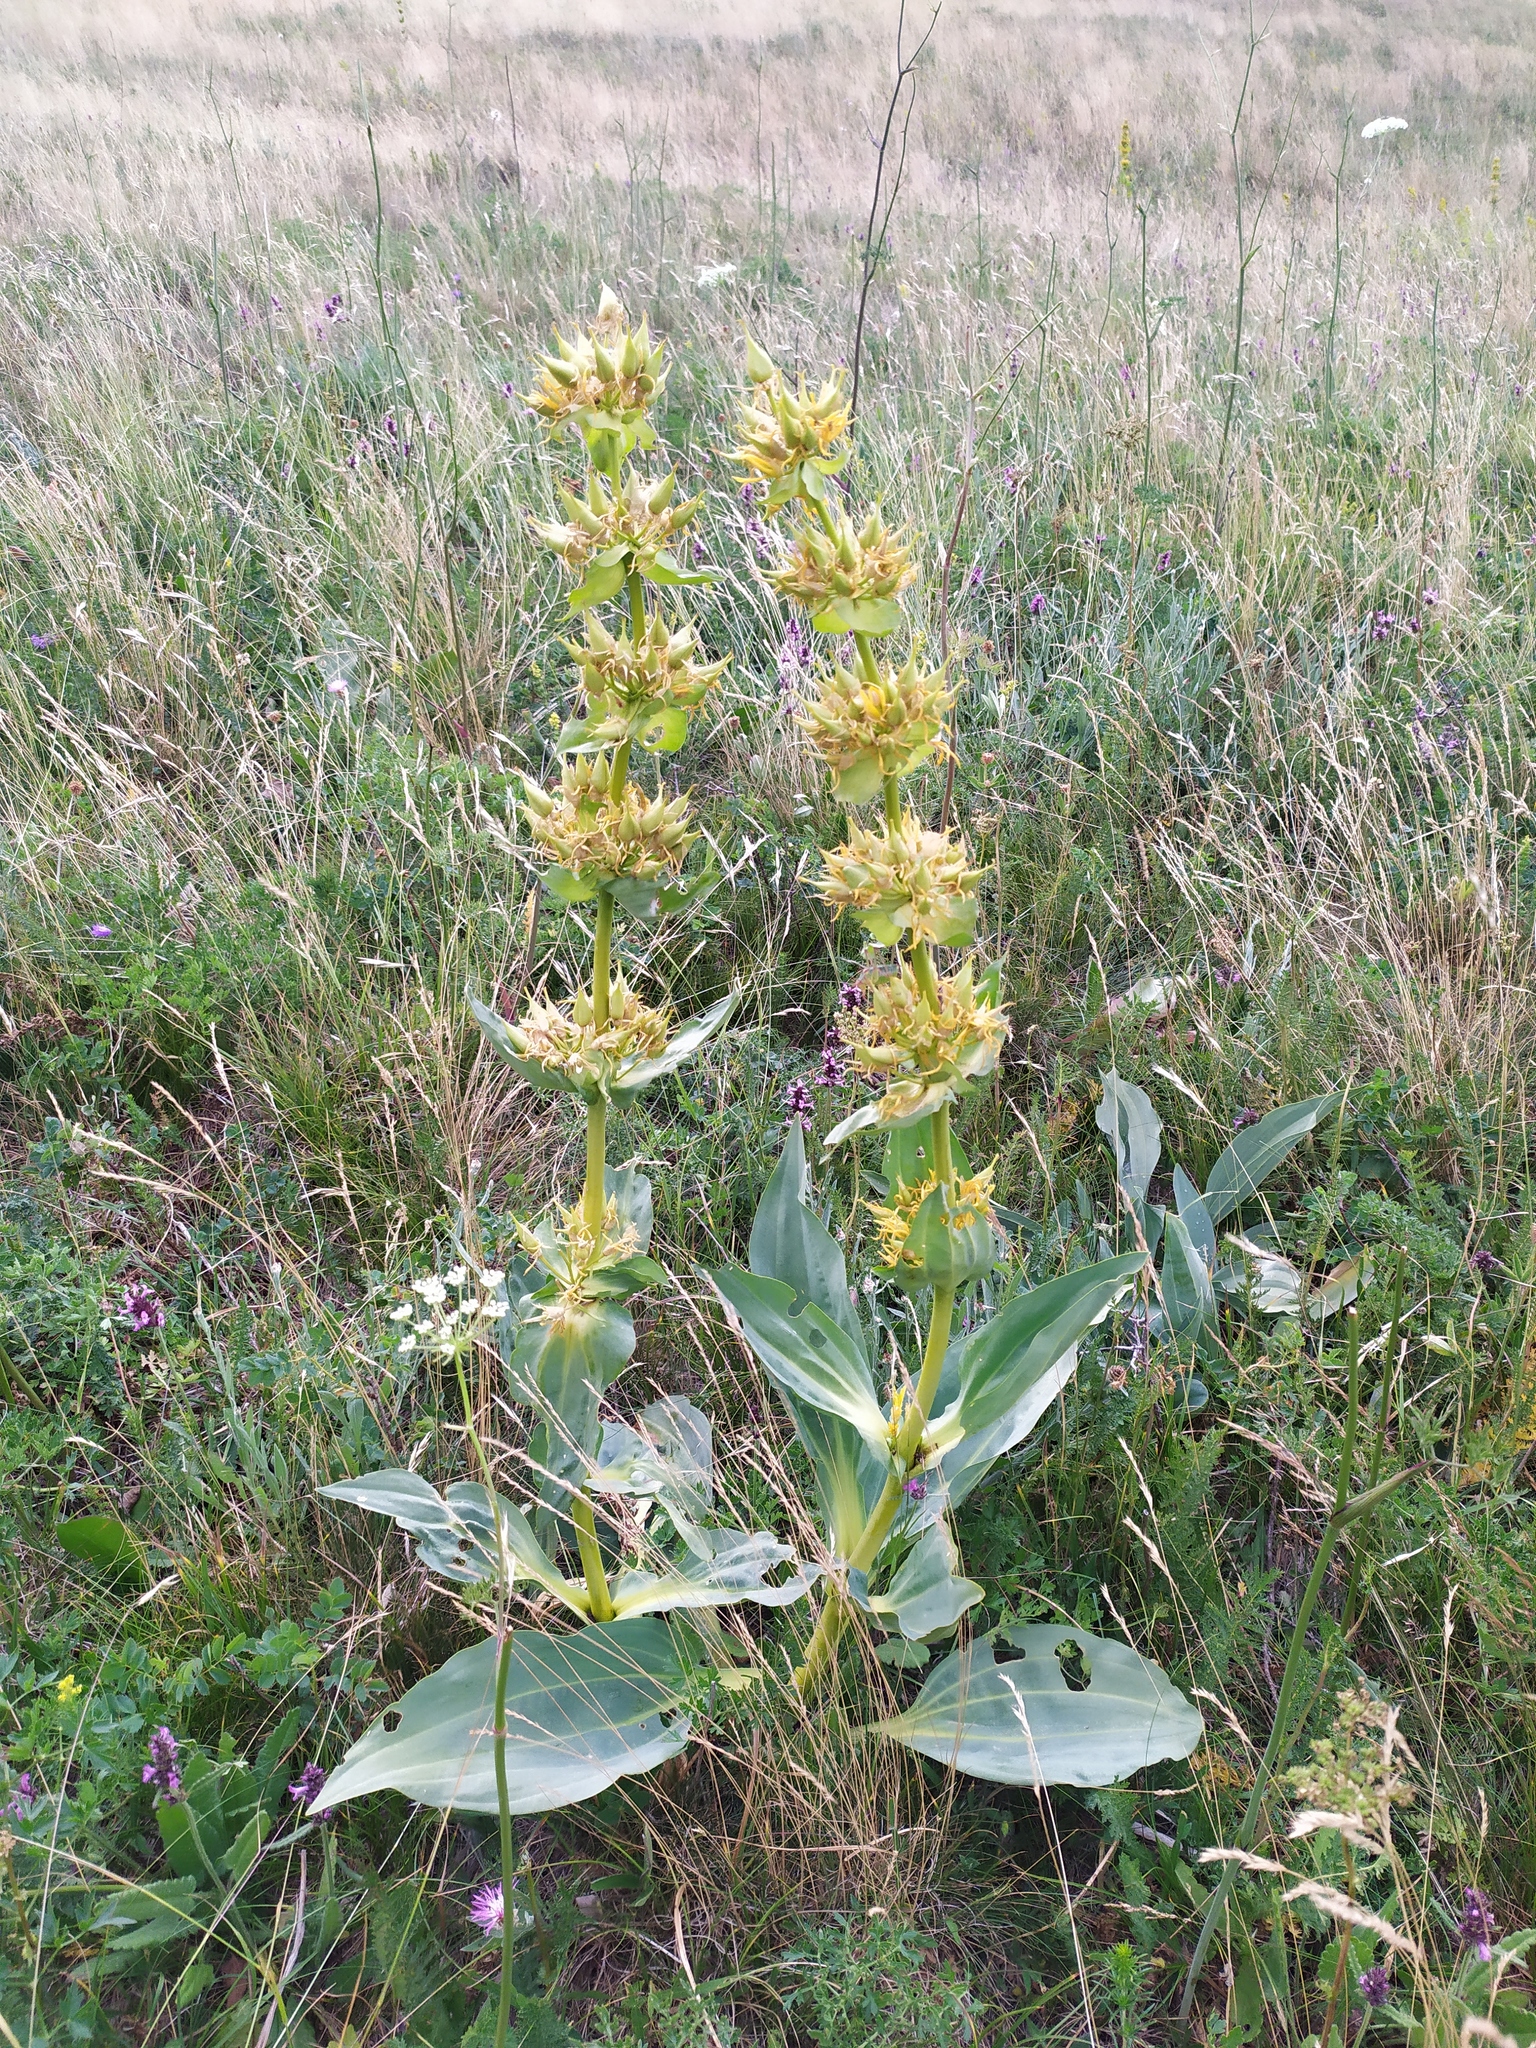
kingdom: Plantae
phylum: Tracheophyta
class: Magnoliopsida
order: Gentianales
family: Gentianaceae
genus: Gentiana
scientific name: Gentiana lutea
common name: Great yellow gentian
